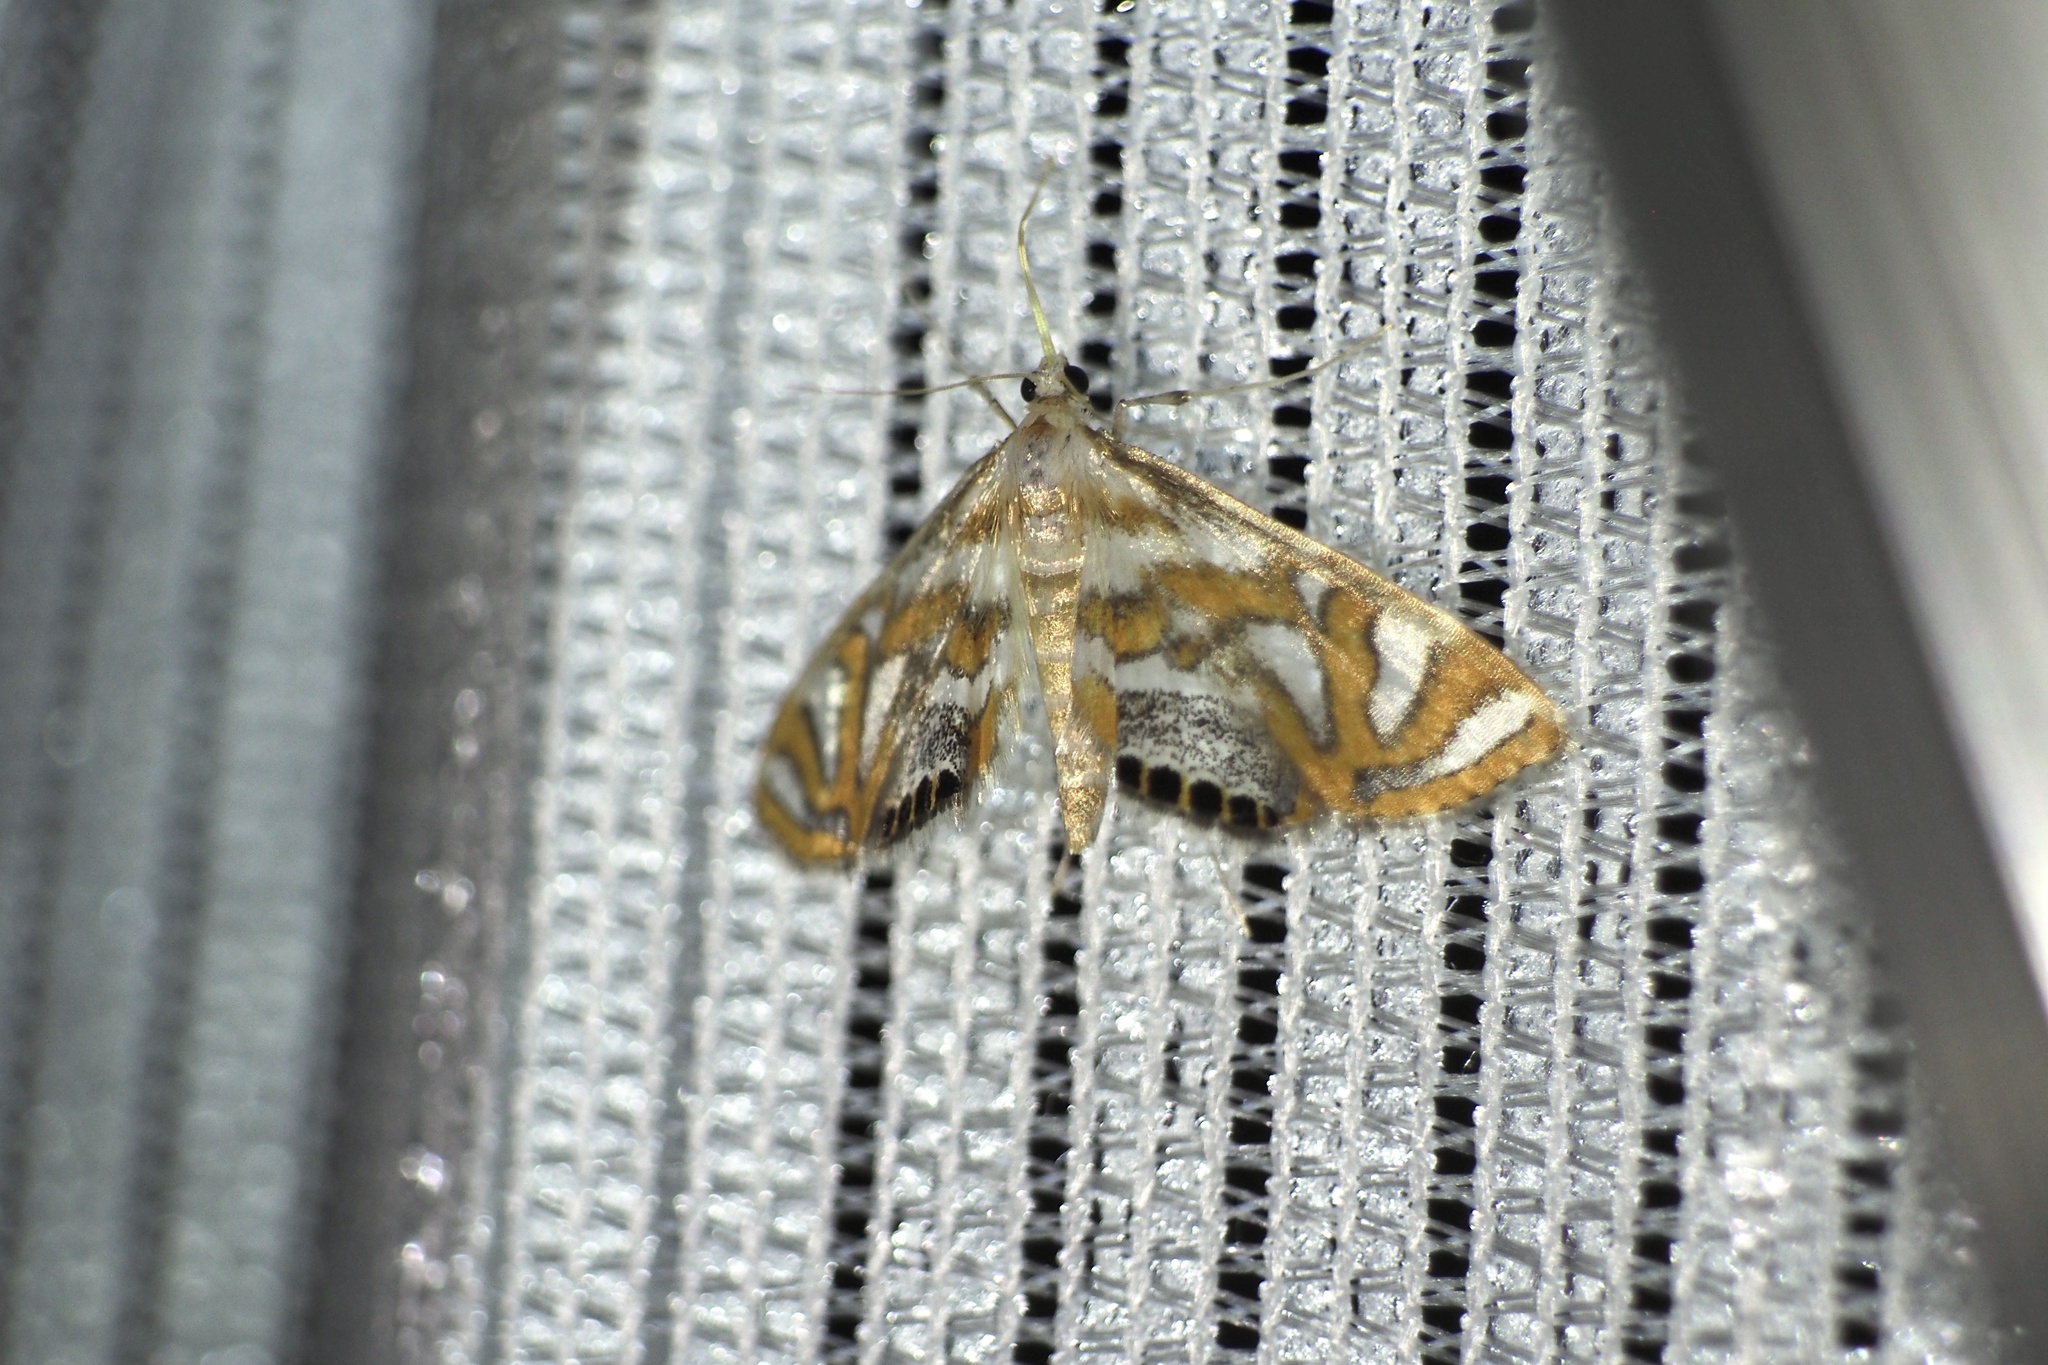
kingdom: Animalia
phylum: Arthropoda
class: Insecta
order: Lepidoptera
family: Crambidae
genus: Potamomusa
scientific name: Potamomusa midas
